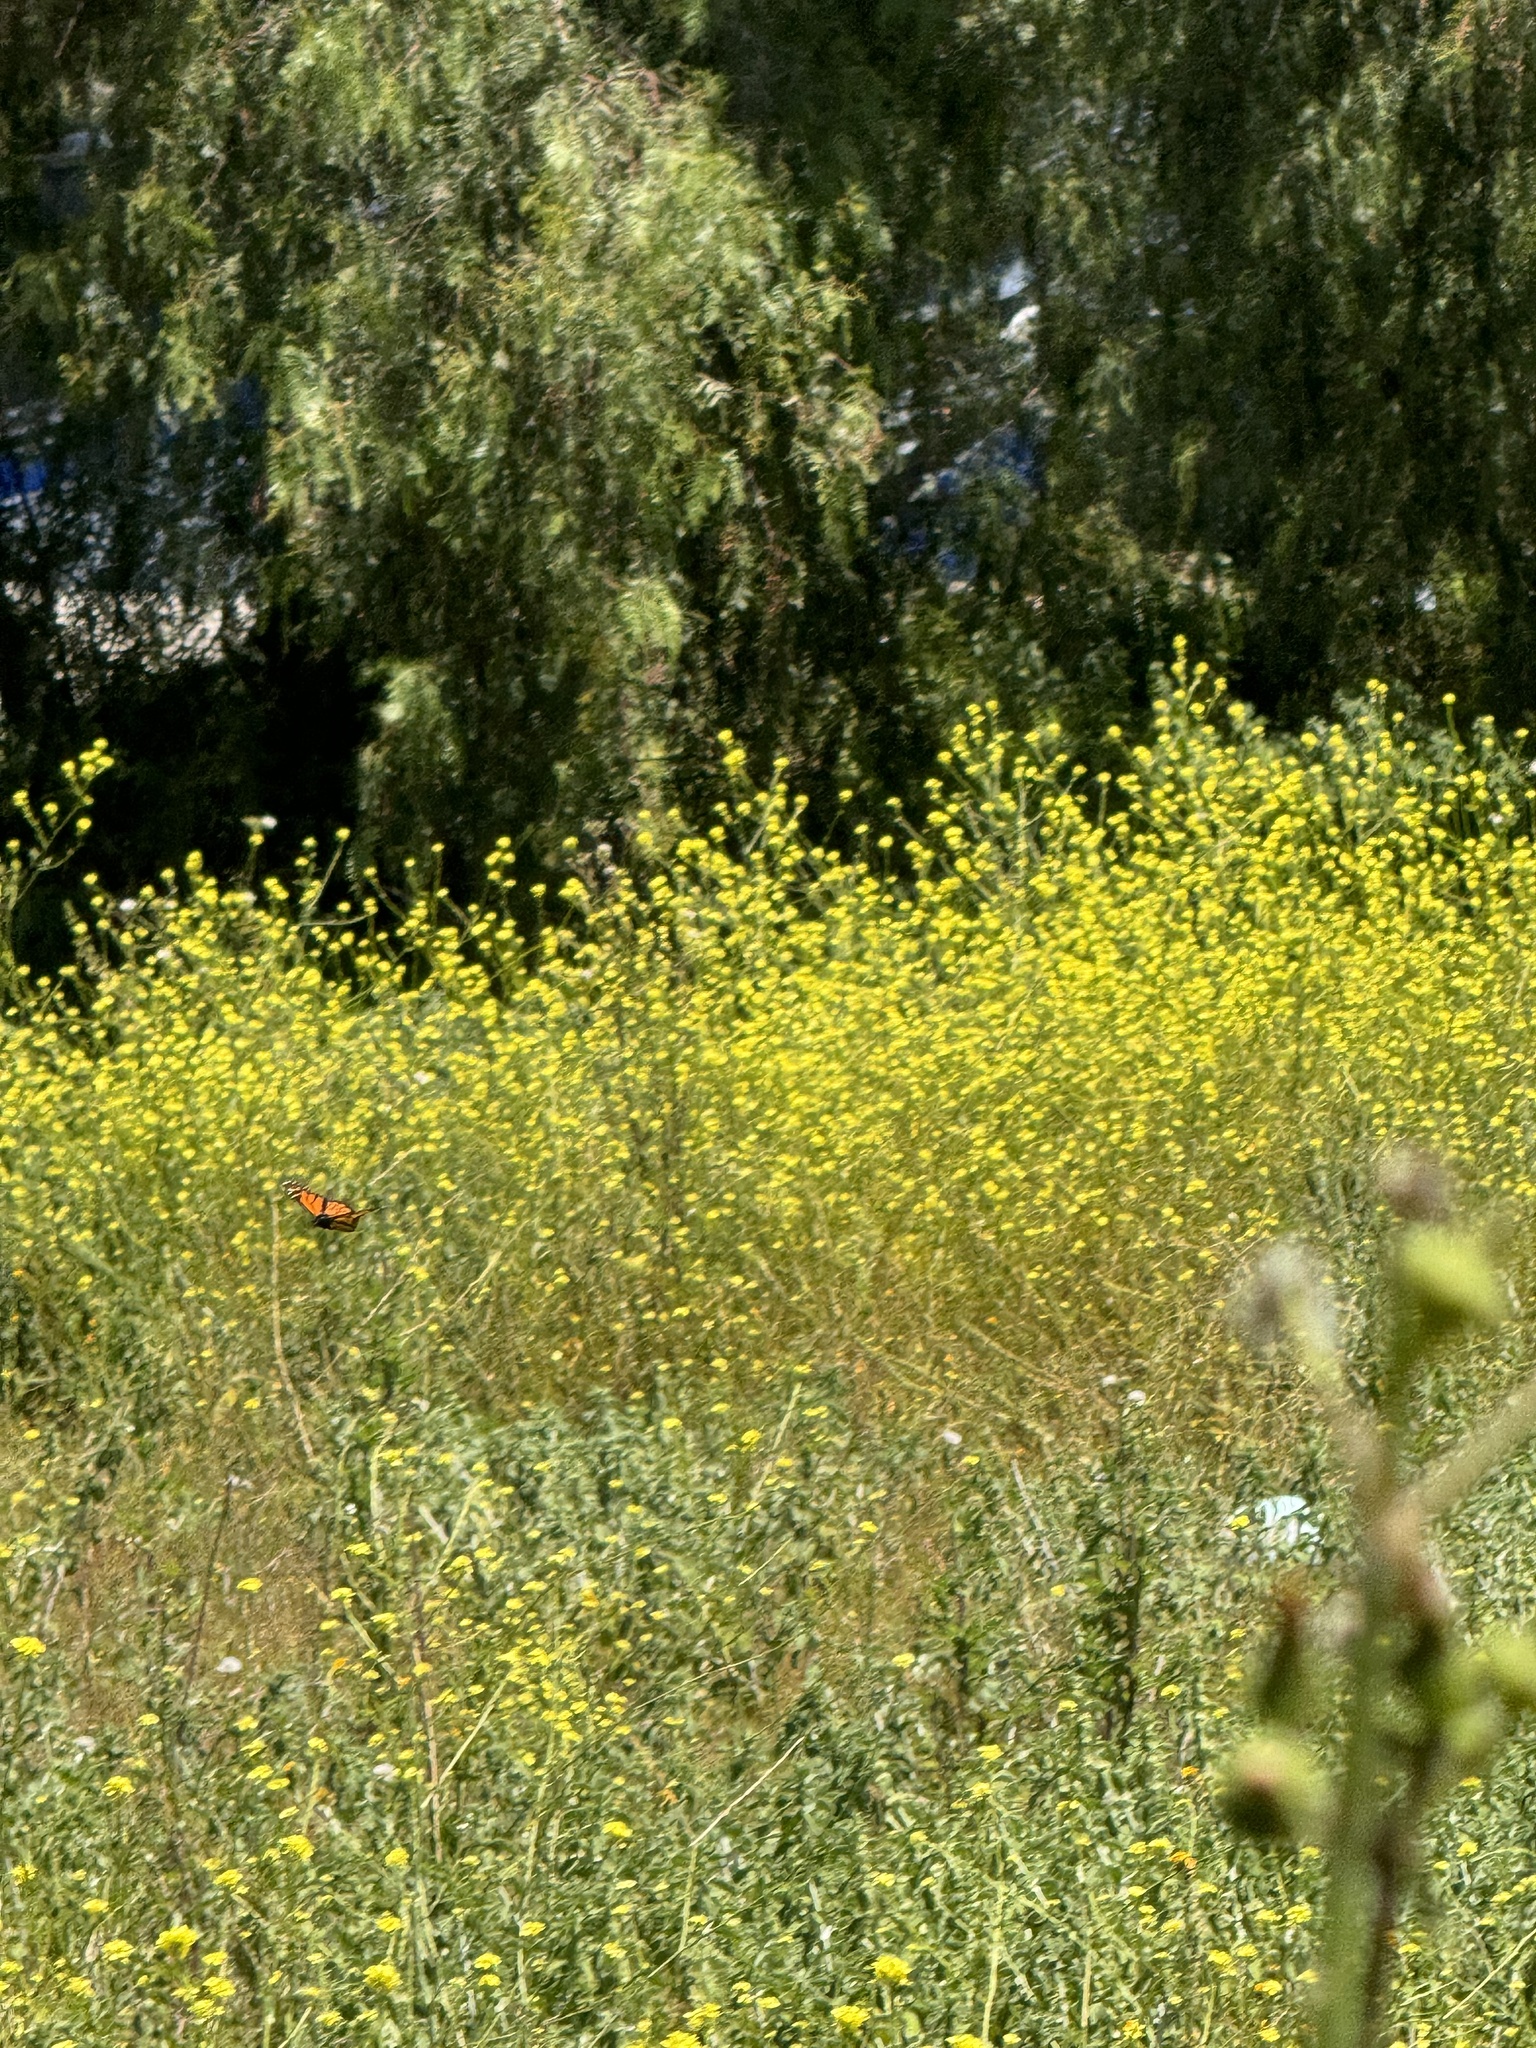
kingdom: Animalia
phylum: Arthropoda
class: Insecta
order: Lepidoptera
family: Nymphalidae
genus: Danaus
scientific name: Danaus plexippus
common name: Monarch
